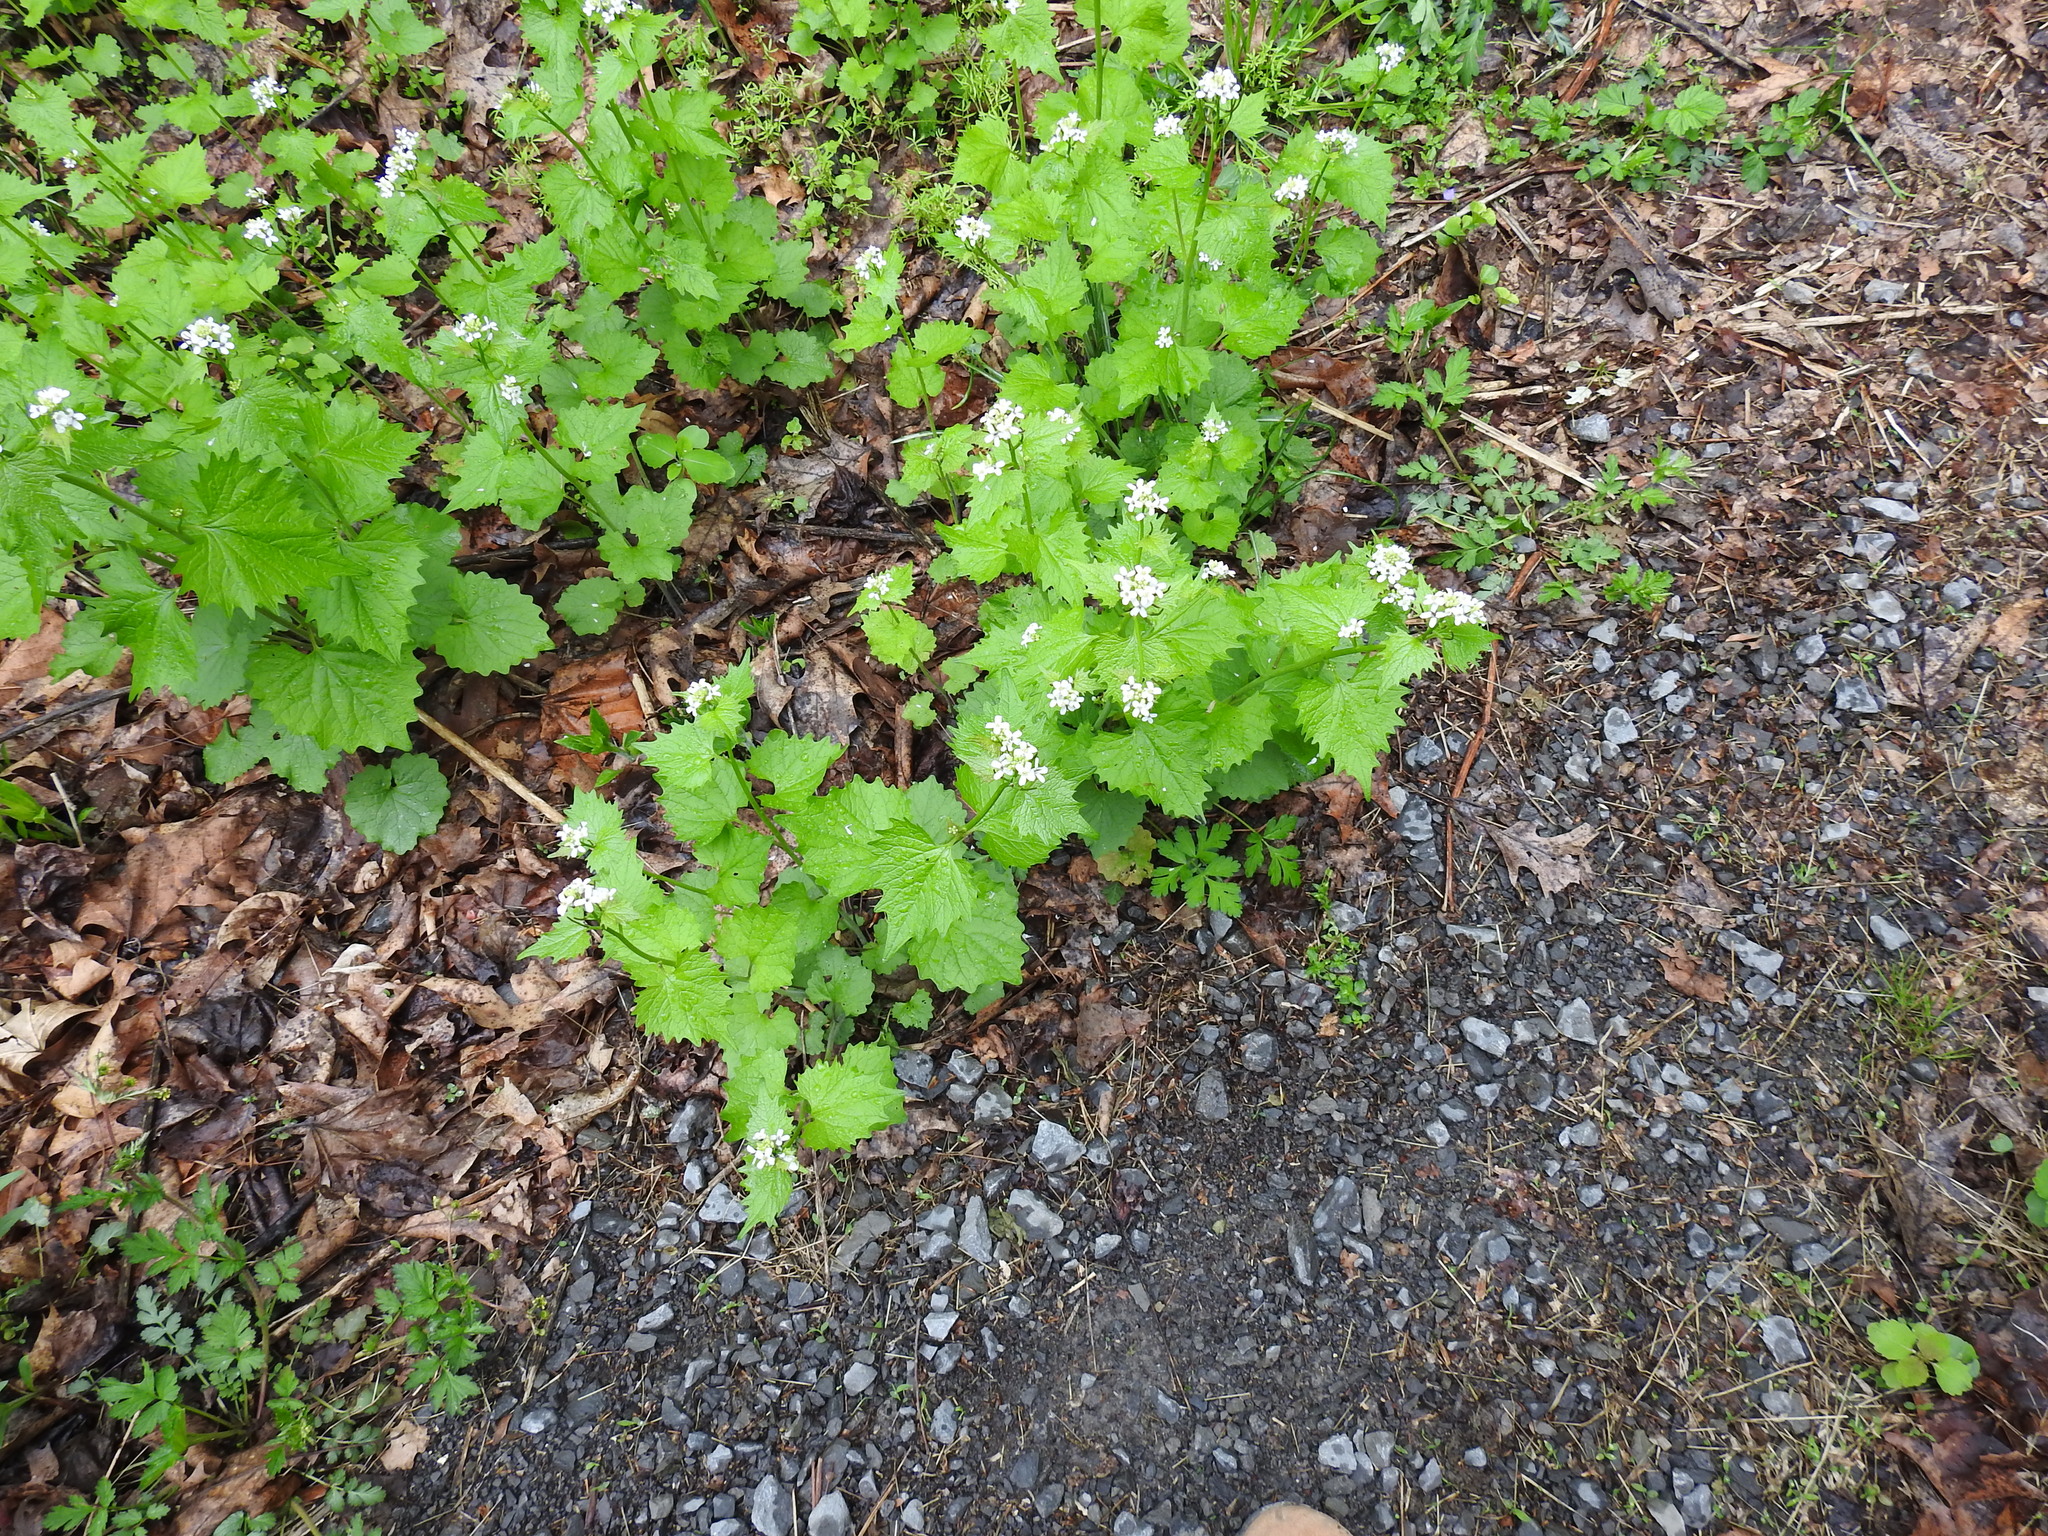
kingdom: Plantae
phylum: Tracheophyta
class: Magnoliopsida
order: Brassicales
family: Brassicaceae
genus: Alliaria
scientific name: Alliaria petiolata
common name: Garlic mustard
